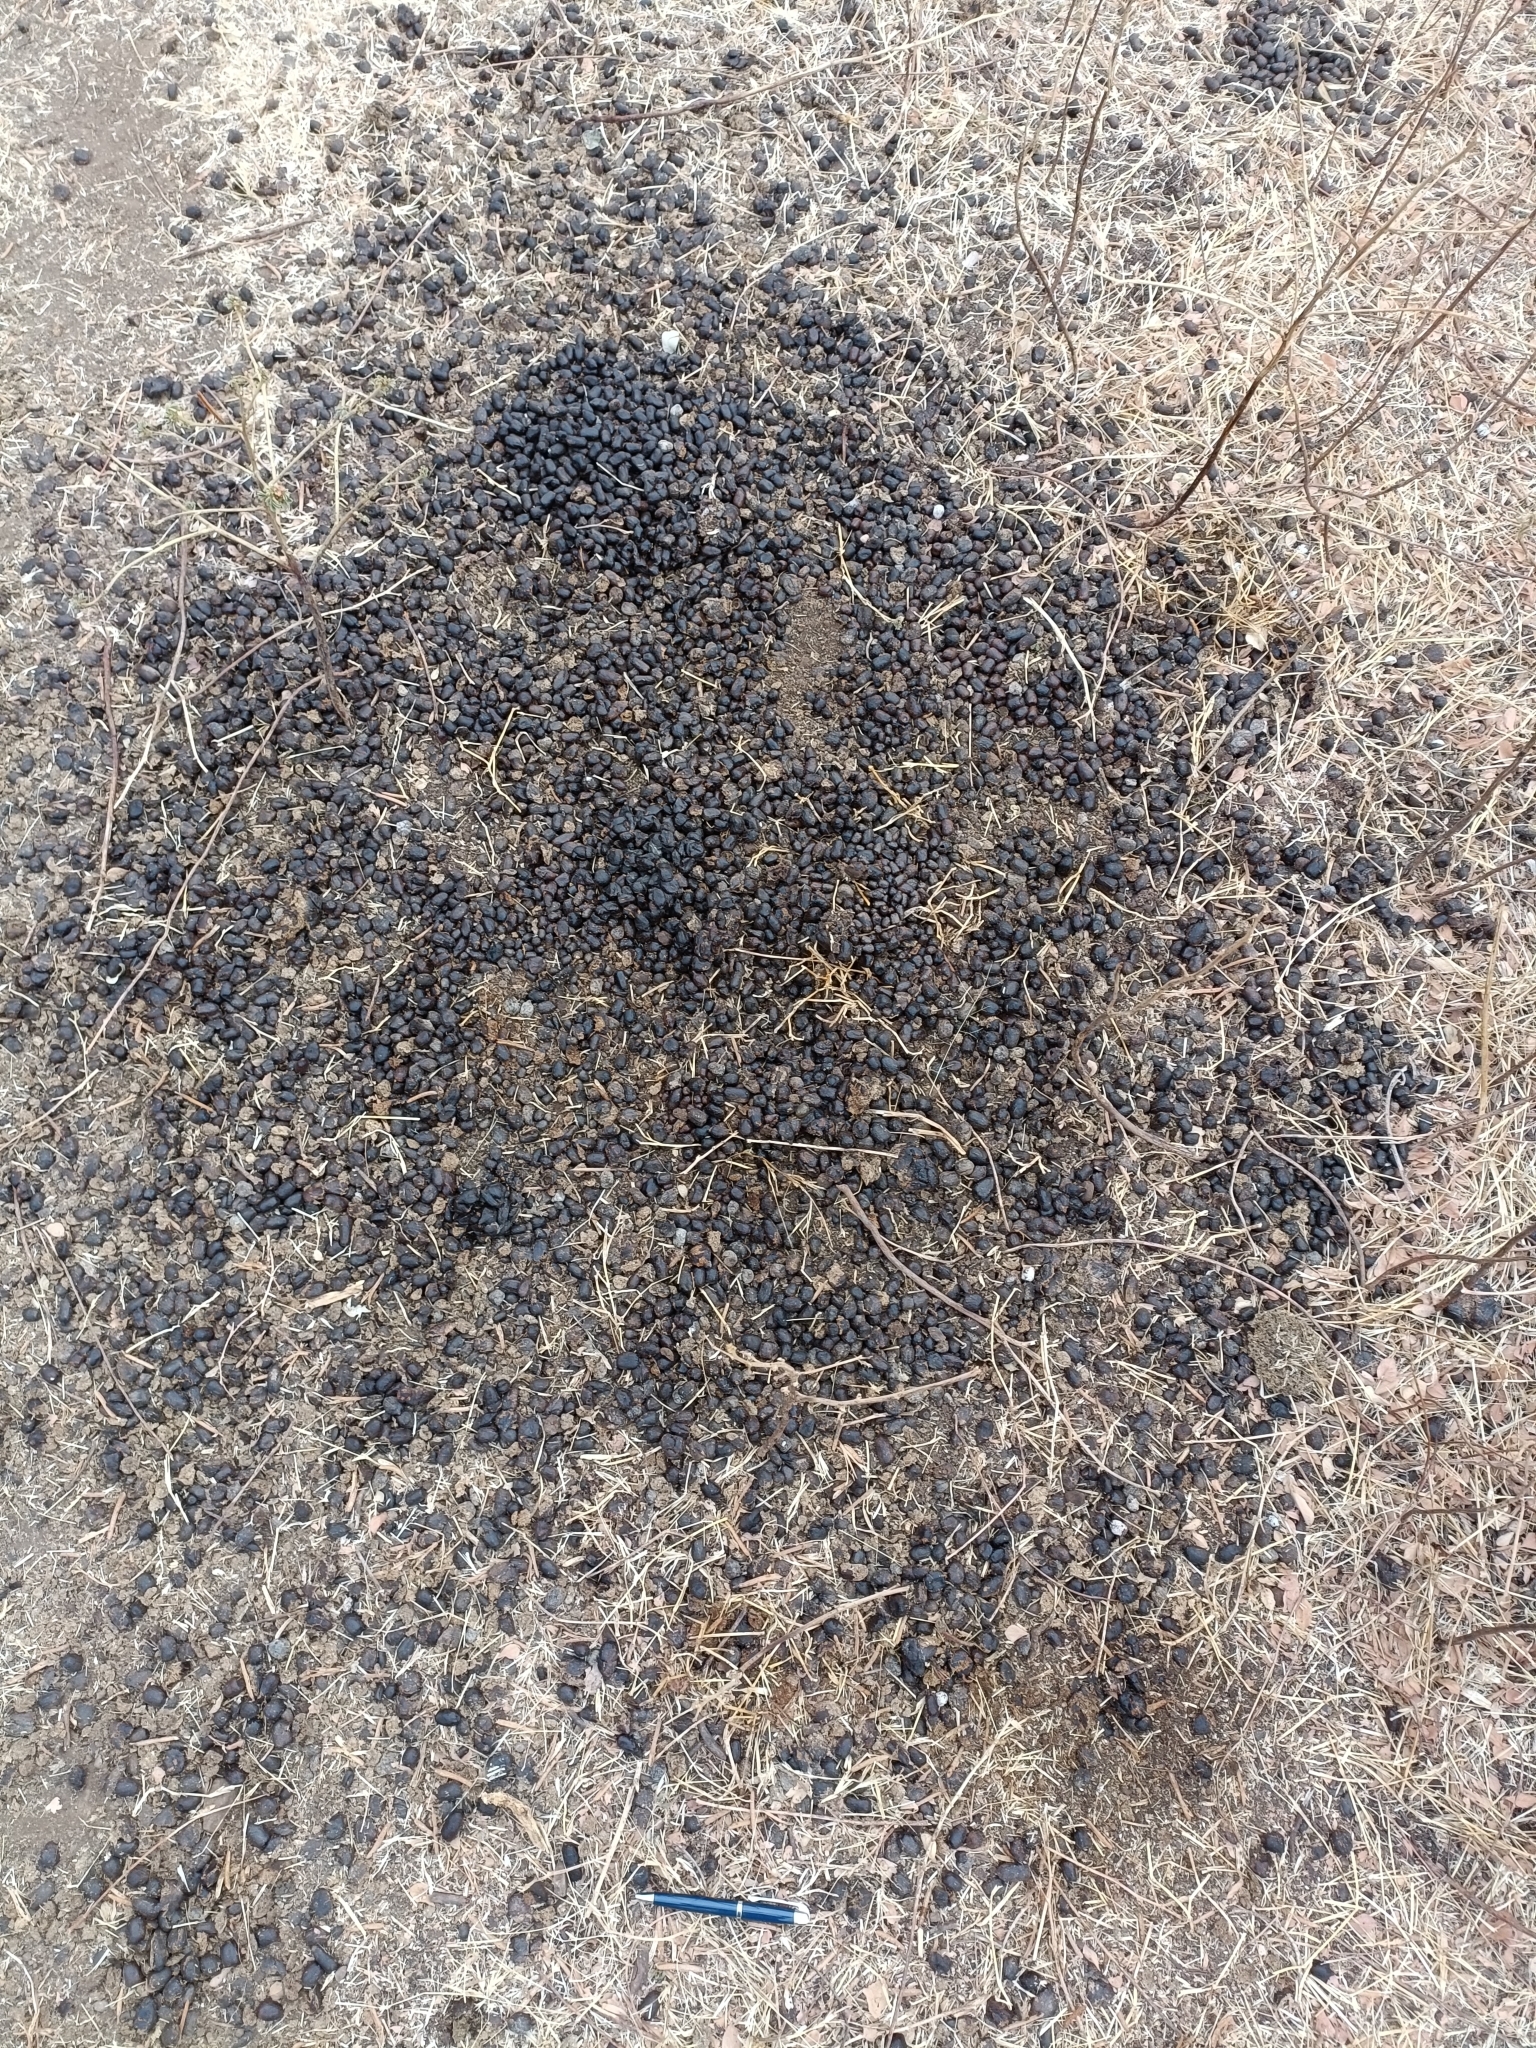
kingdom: Animalia
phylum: Chordata
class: Mammalia
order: Artiodactyla
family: Bovidae
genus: Boselaphus
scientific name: Boselaphus tragocamelus
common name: Nilgai
